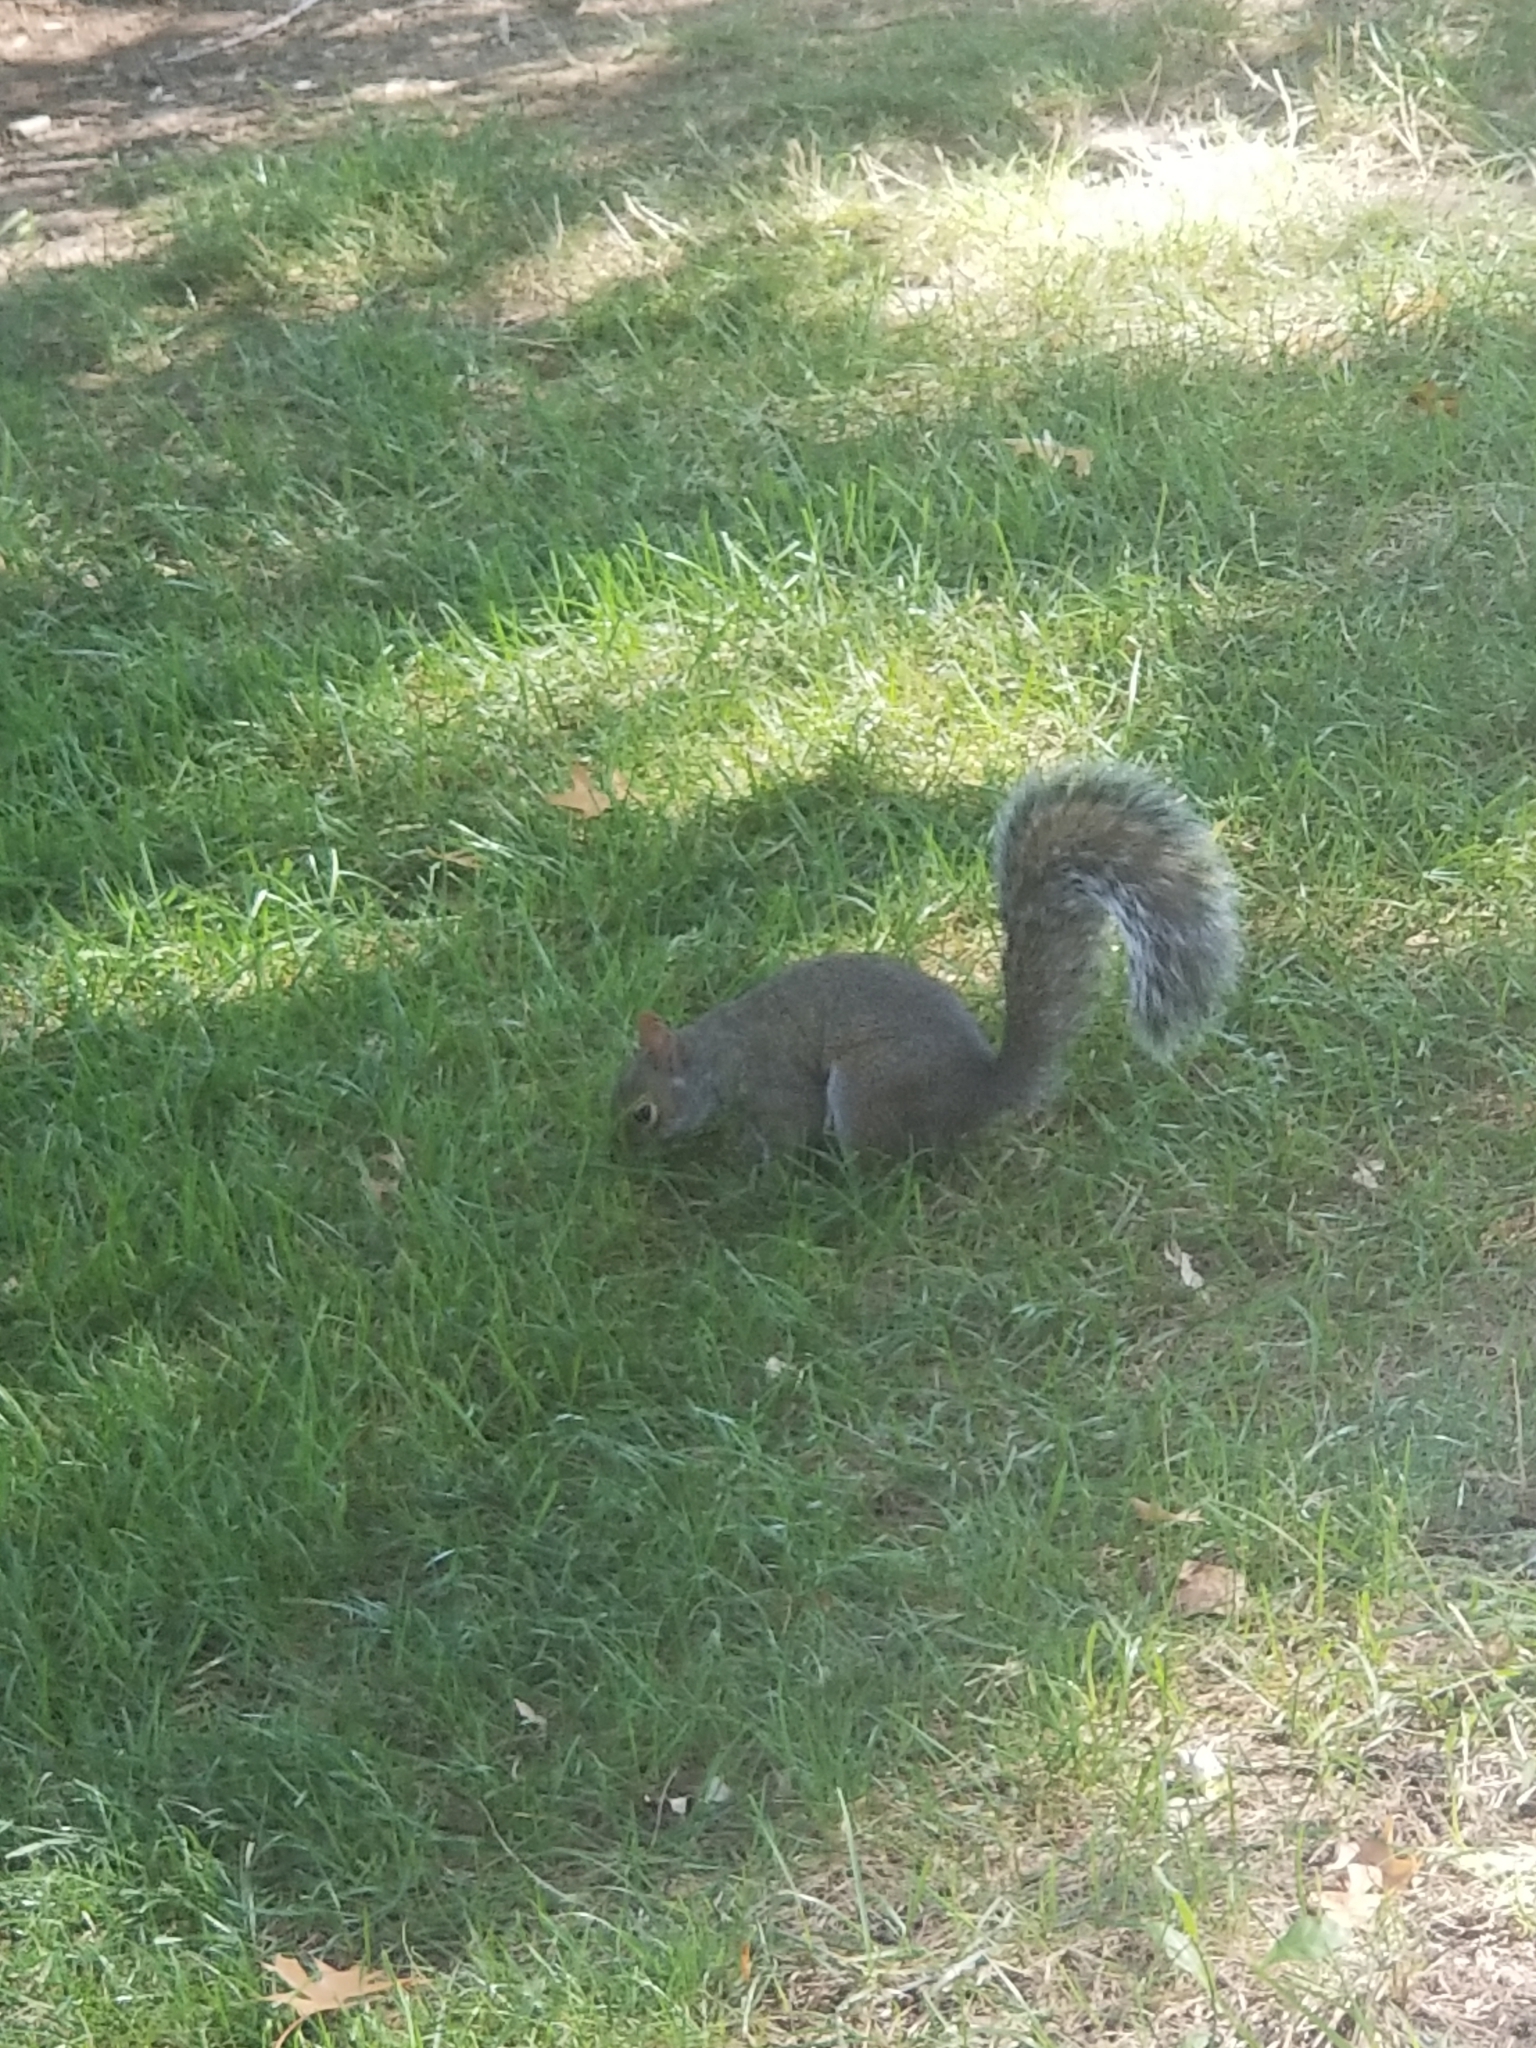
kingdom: Animalia
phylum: Chordata
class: Mammalia
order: Rodentia
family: Sciuridae
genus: Sciurus
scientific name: Sciurus carolinensis
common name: Eastern gray squirrel
